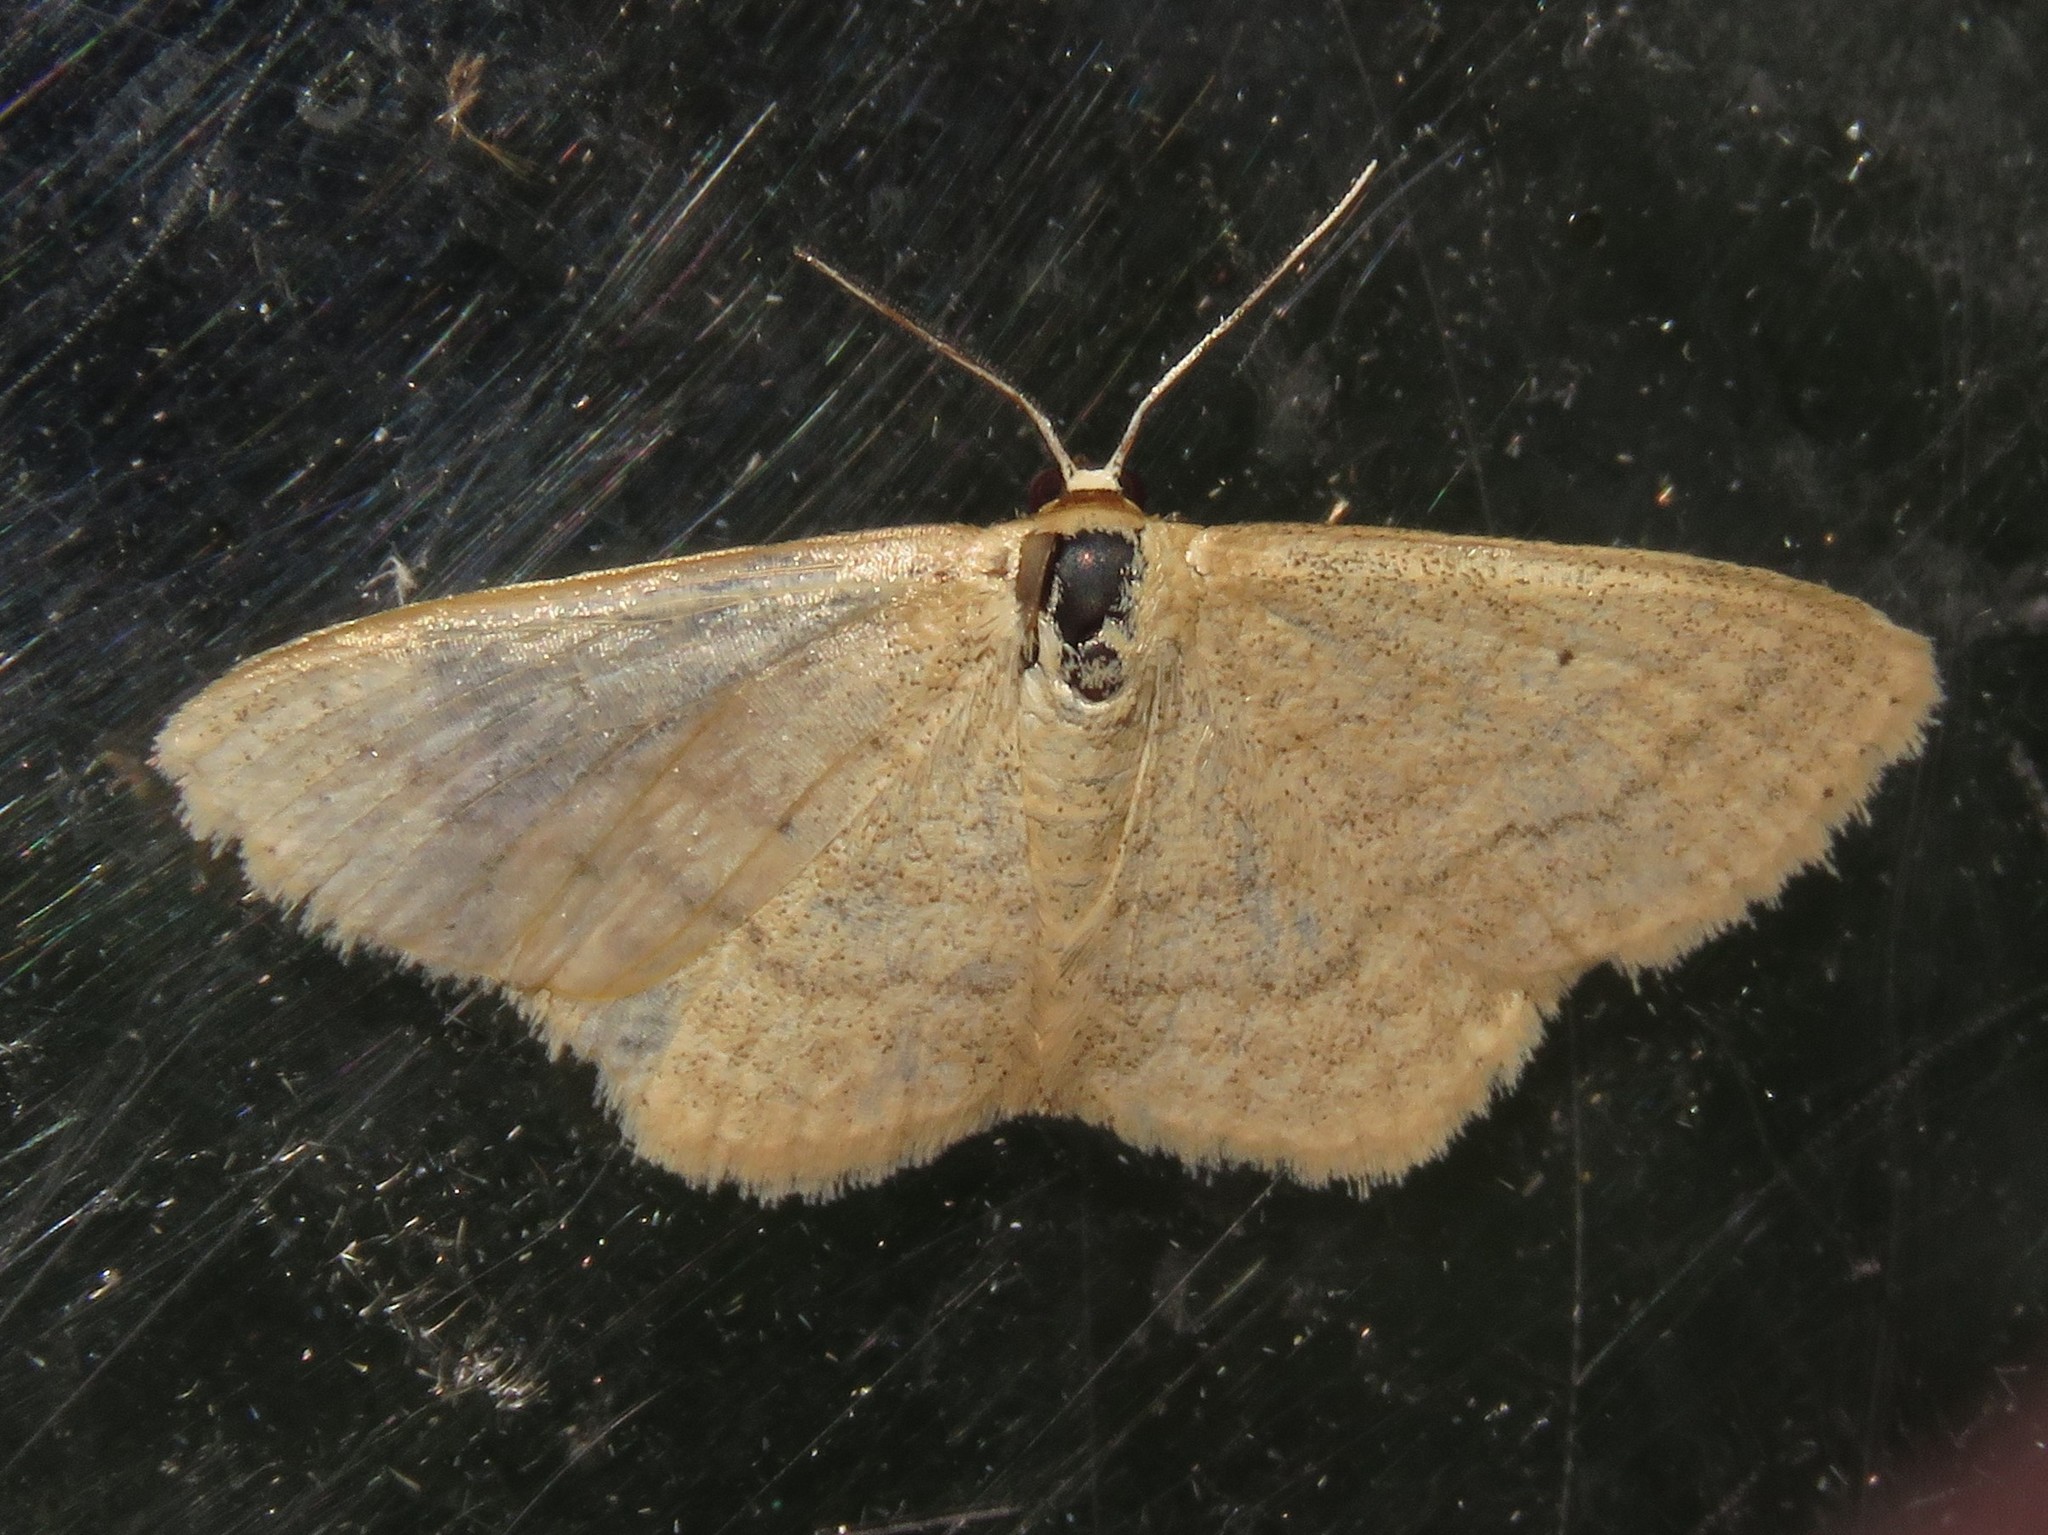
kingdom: Animalia
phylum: Arthropoda
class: Insecta
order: Lepidoptera
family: Geometridae
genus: Scopula
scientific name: Scopula inductata
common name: Soft-lined wave
